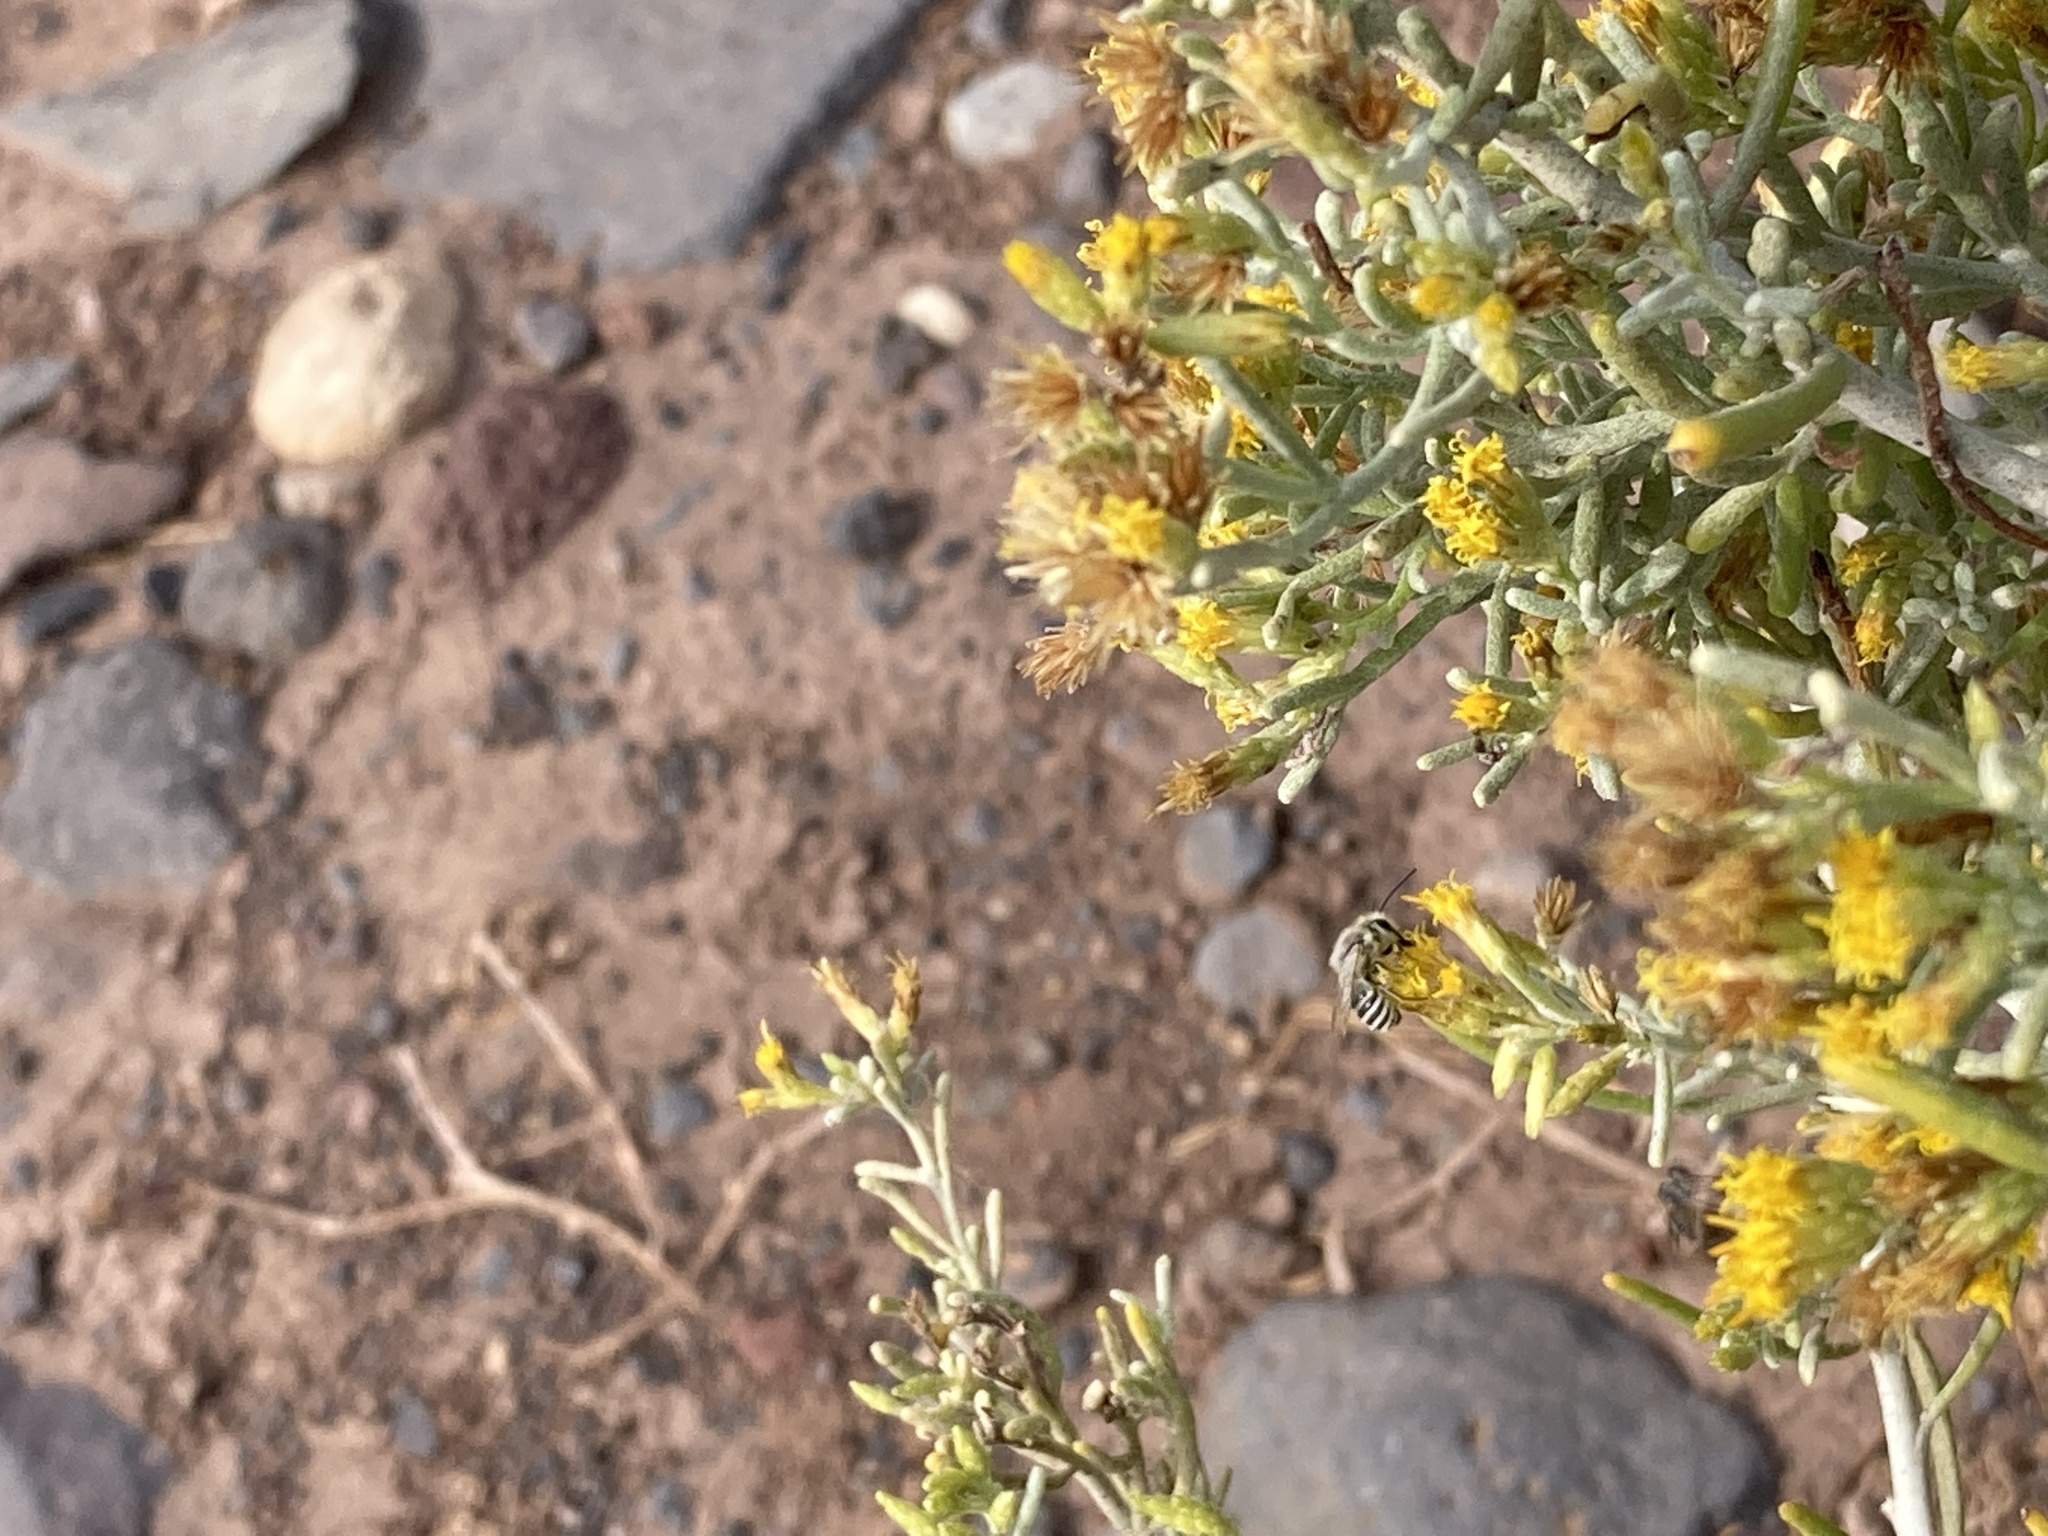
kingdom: Animalia
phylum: Arthropoda
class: Insecta
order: Hymenoptera
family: Colletidae
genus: Colletes
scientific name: Colletes moricei
